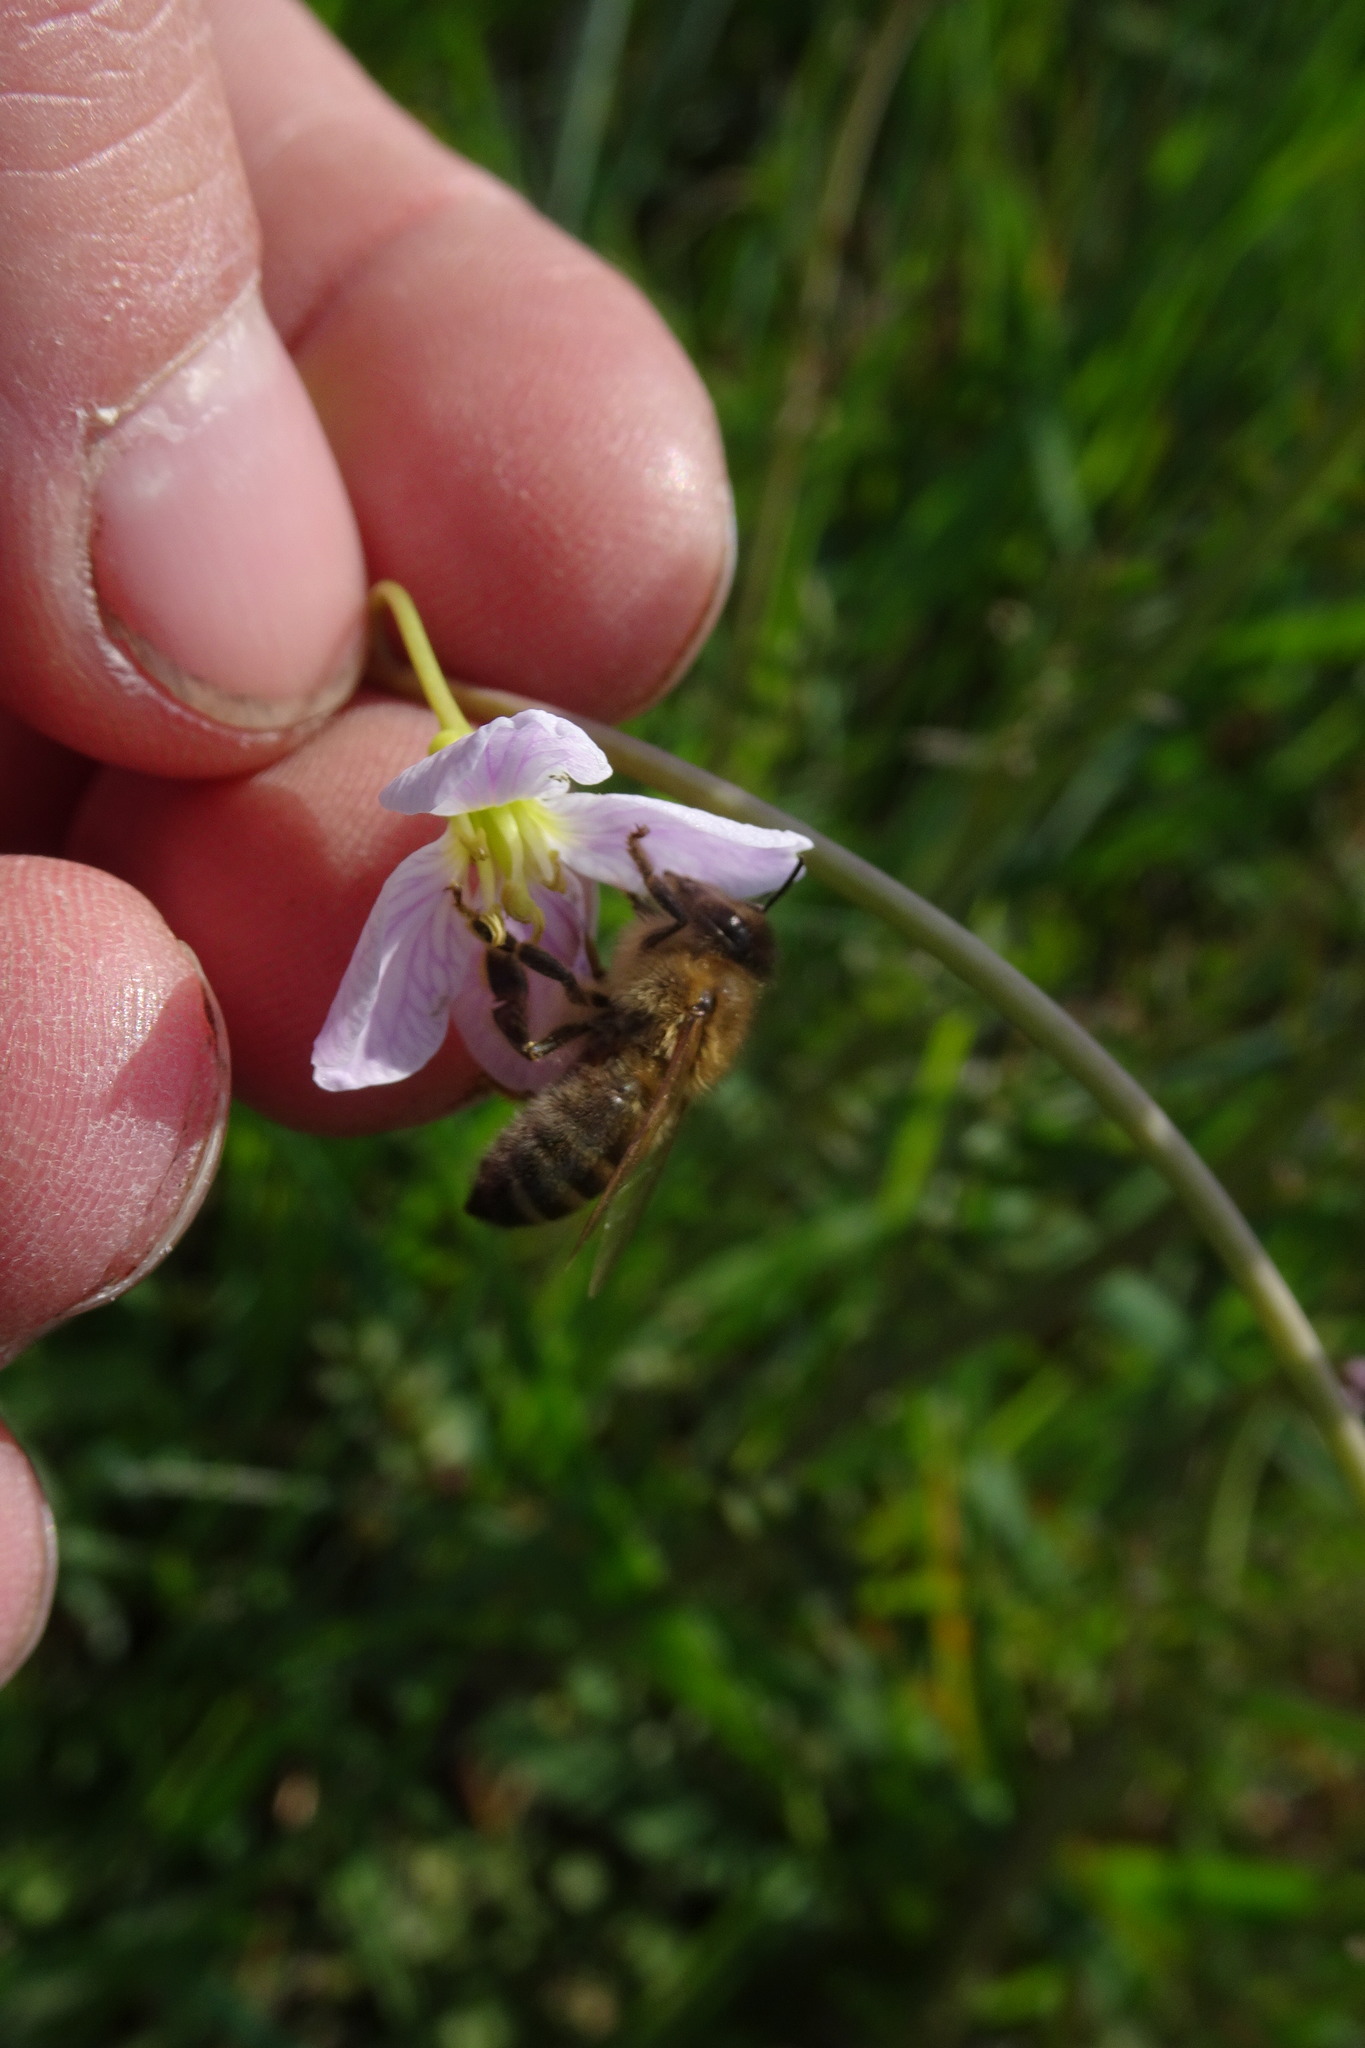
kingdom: Animalia
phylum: Arthropoda
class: Insecta
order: Hymenoptera
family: Apidae
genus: Apis
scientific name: Apis mellifera
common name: Honey bee
